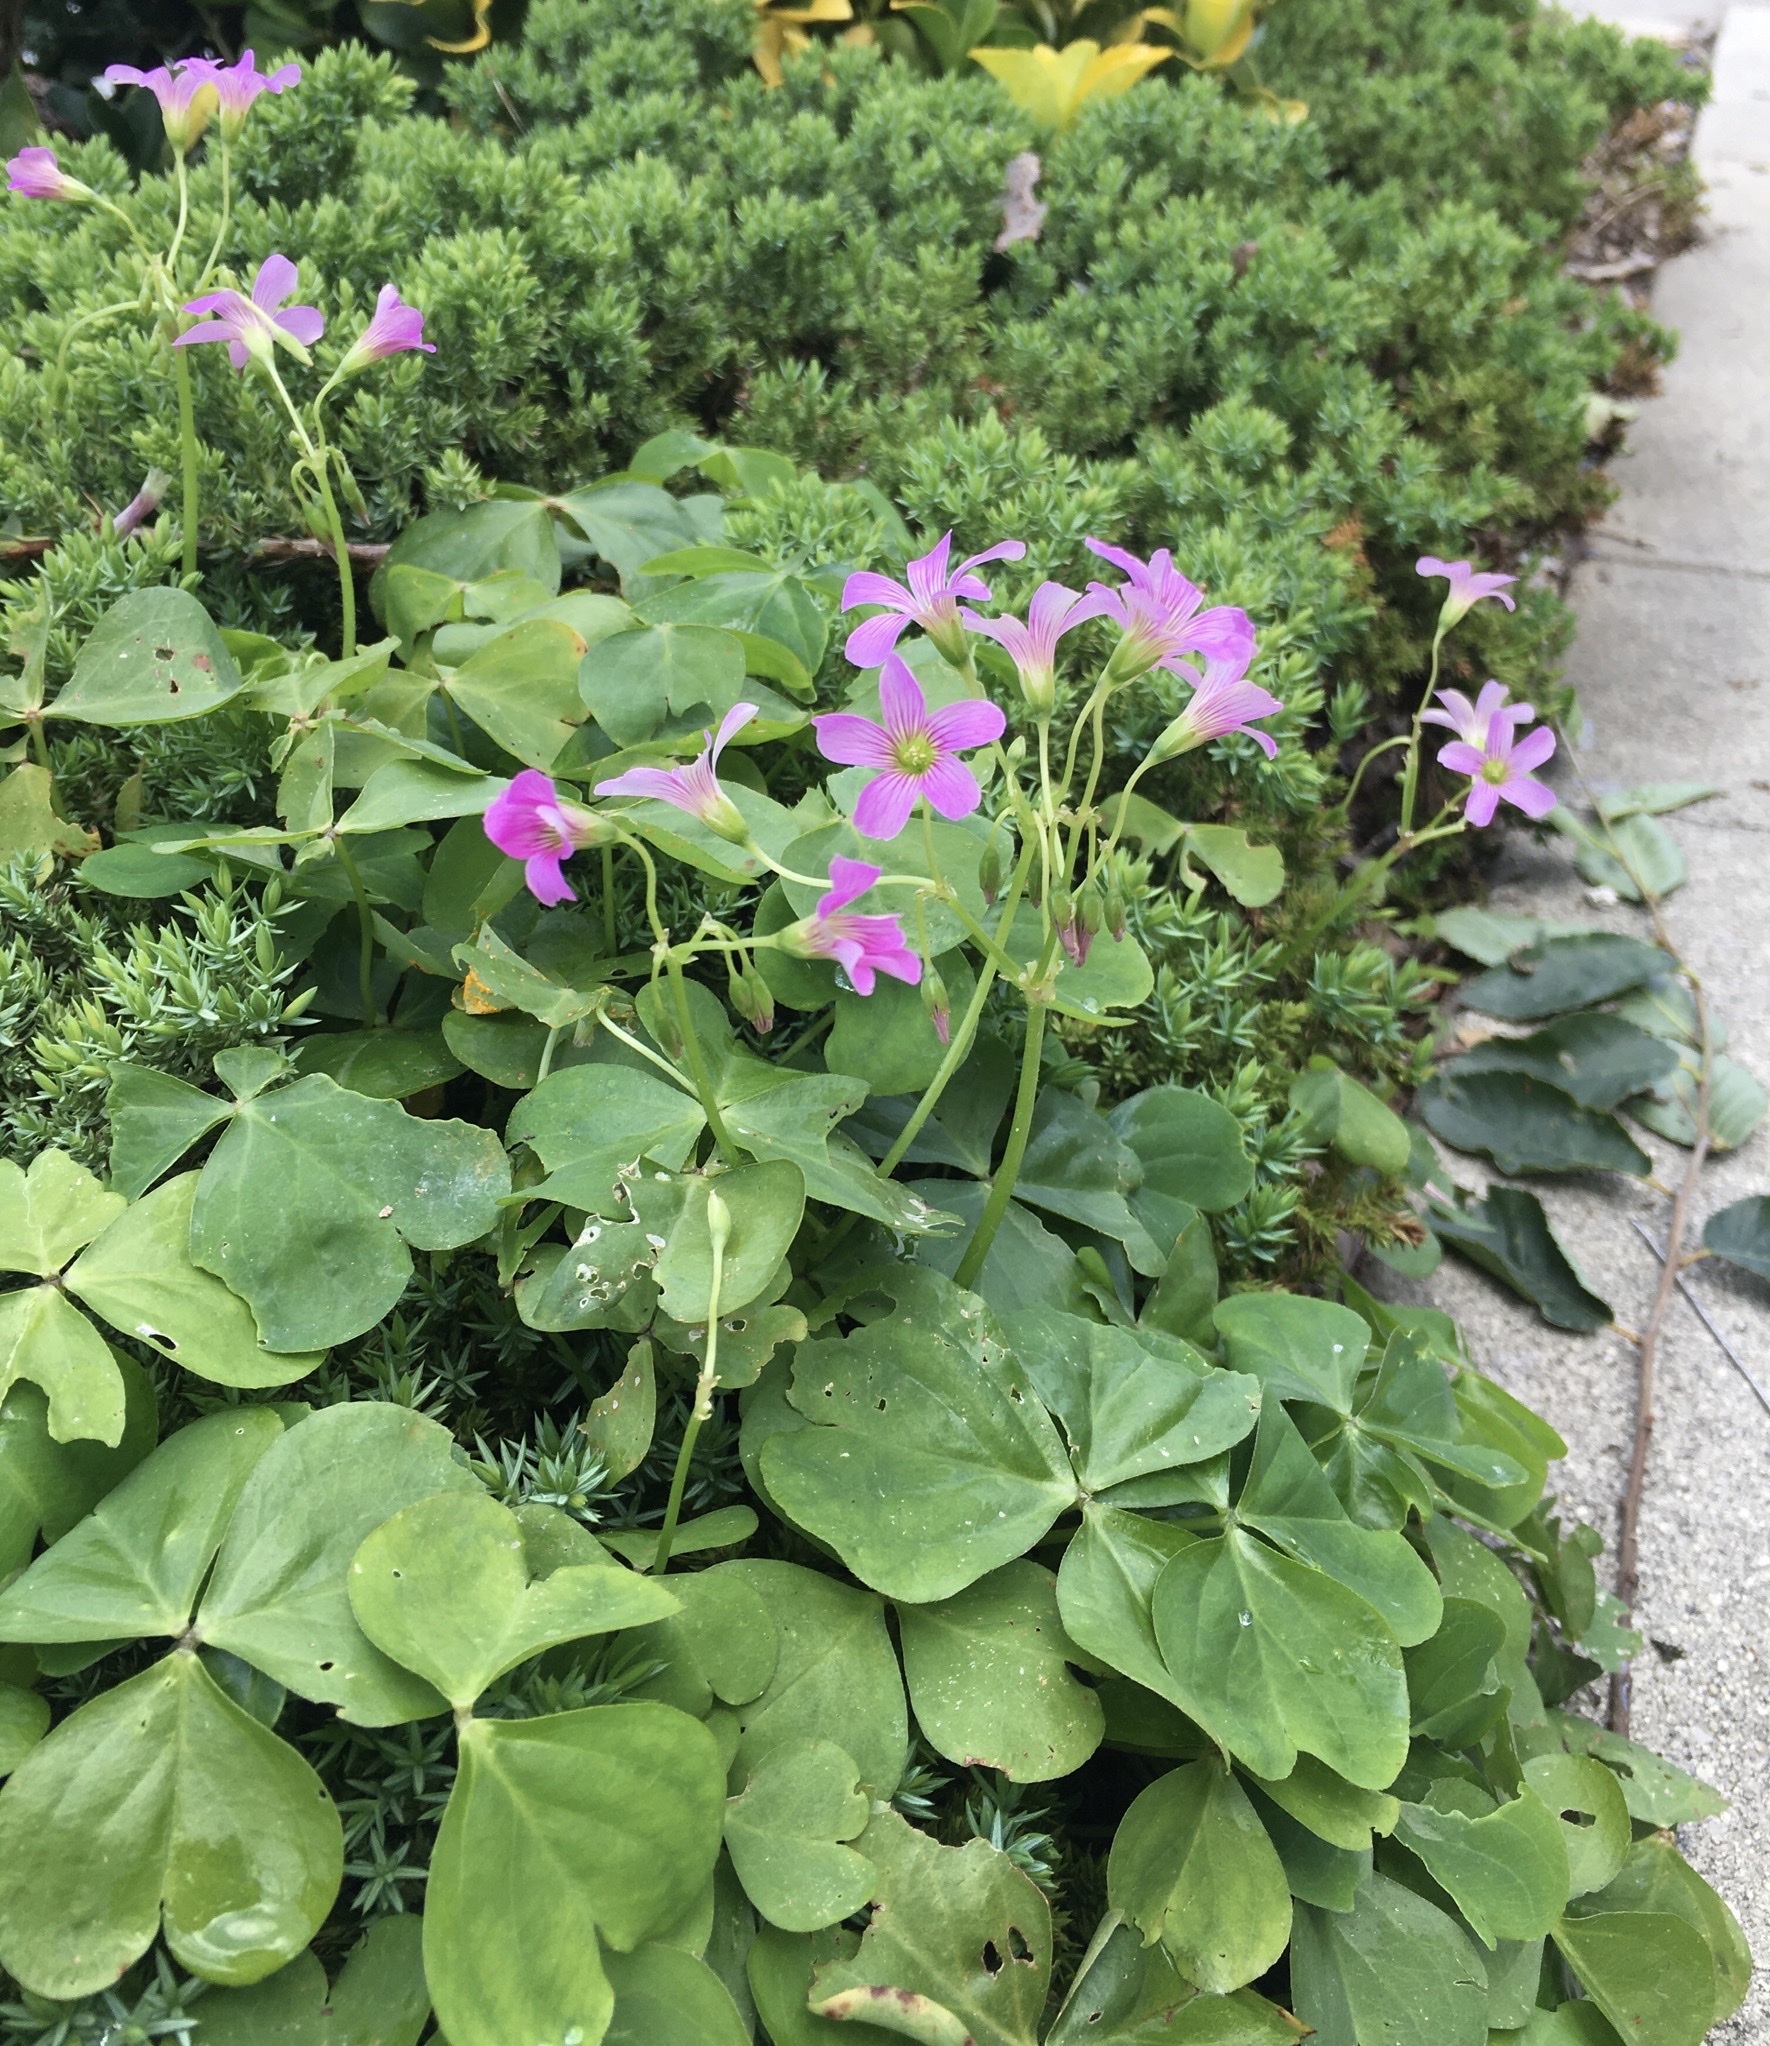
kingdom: Plantae
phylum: Tracheophyta
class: Magnoliopsida
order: Oxalidales
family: Oxalidaceae
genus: Oxalis
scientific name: Oxalis debilis
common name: Large-flowered pink-sorrel
